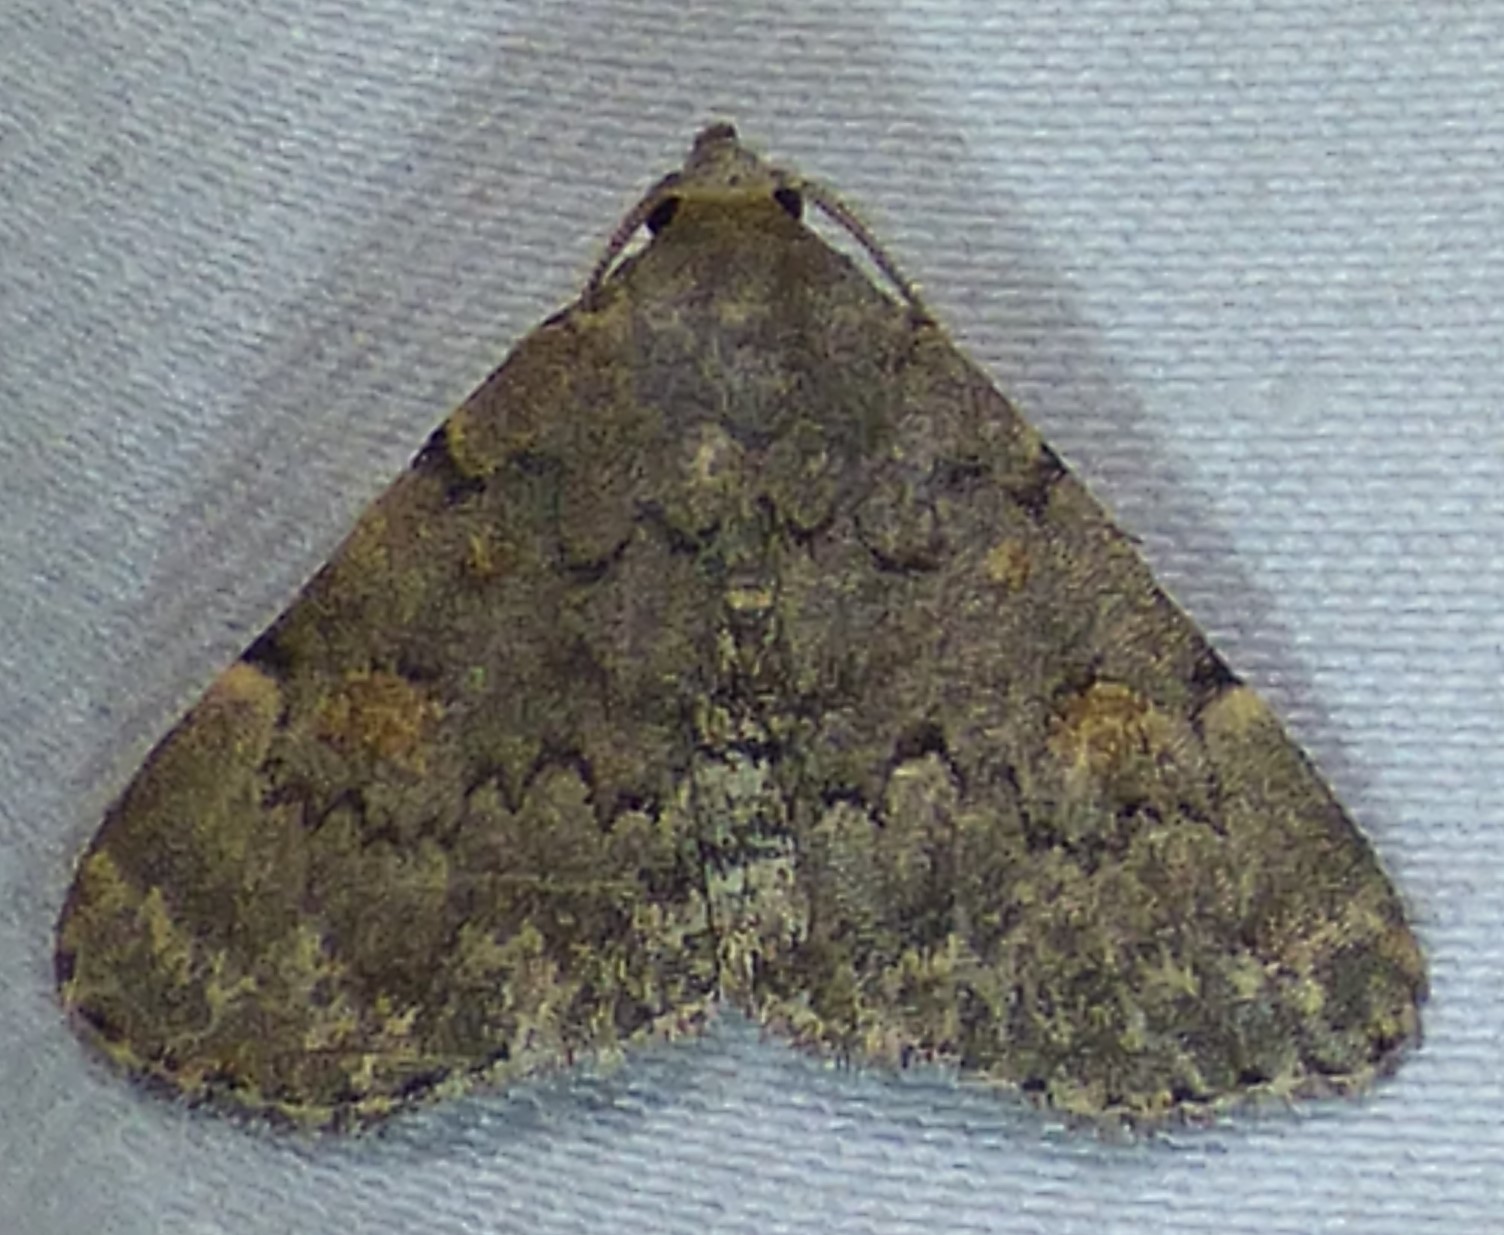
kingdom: Animalia
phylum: Arthropoda
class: Insecta
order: Lepidoptera
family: Erebidae
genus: Idia
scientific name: Idia aemula
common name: Common idia moth
